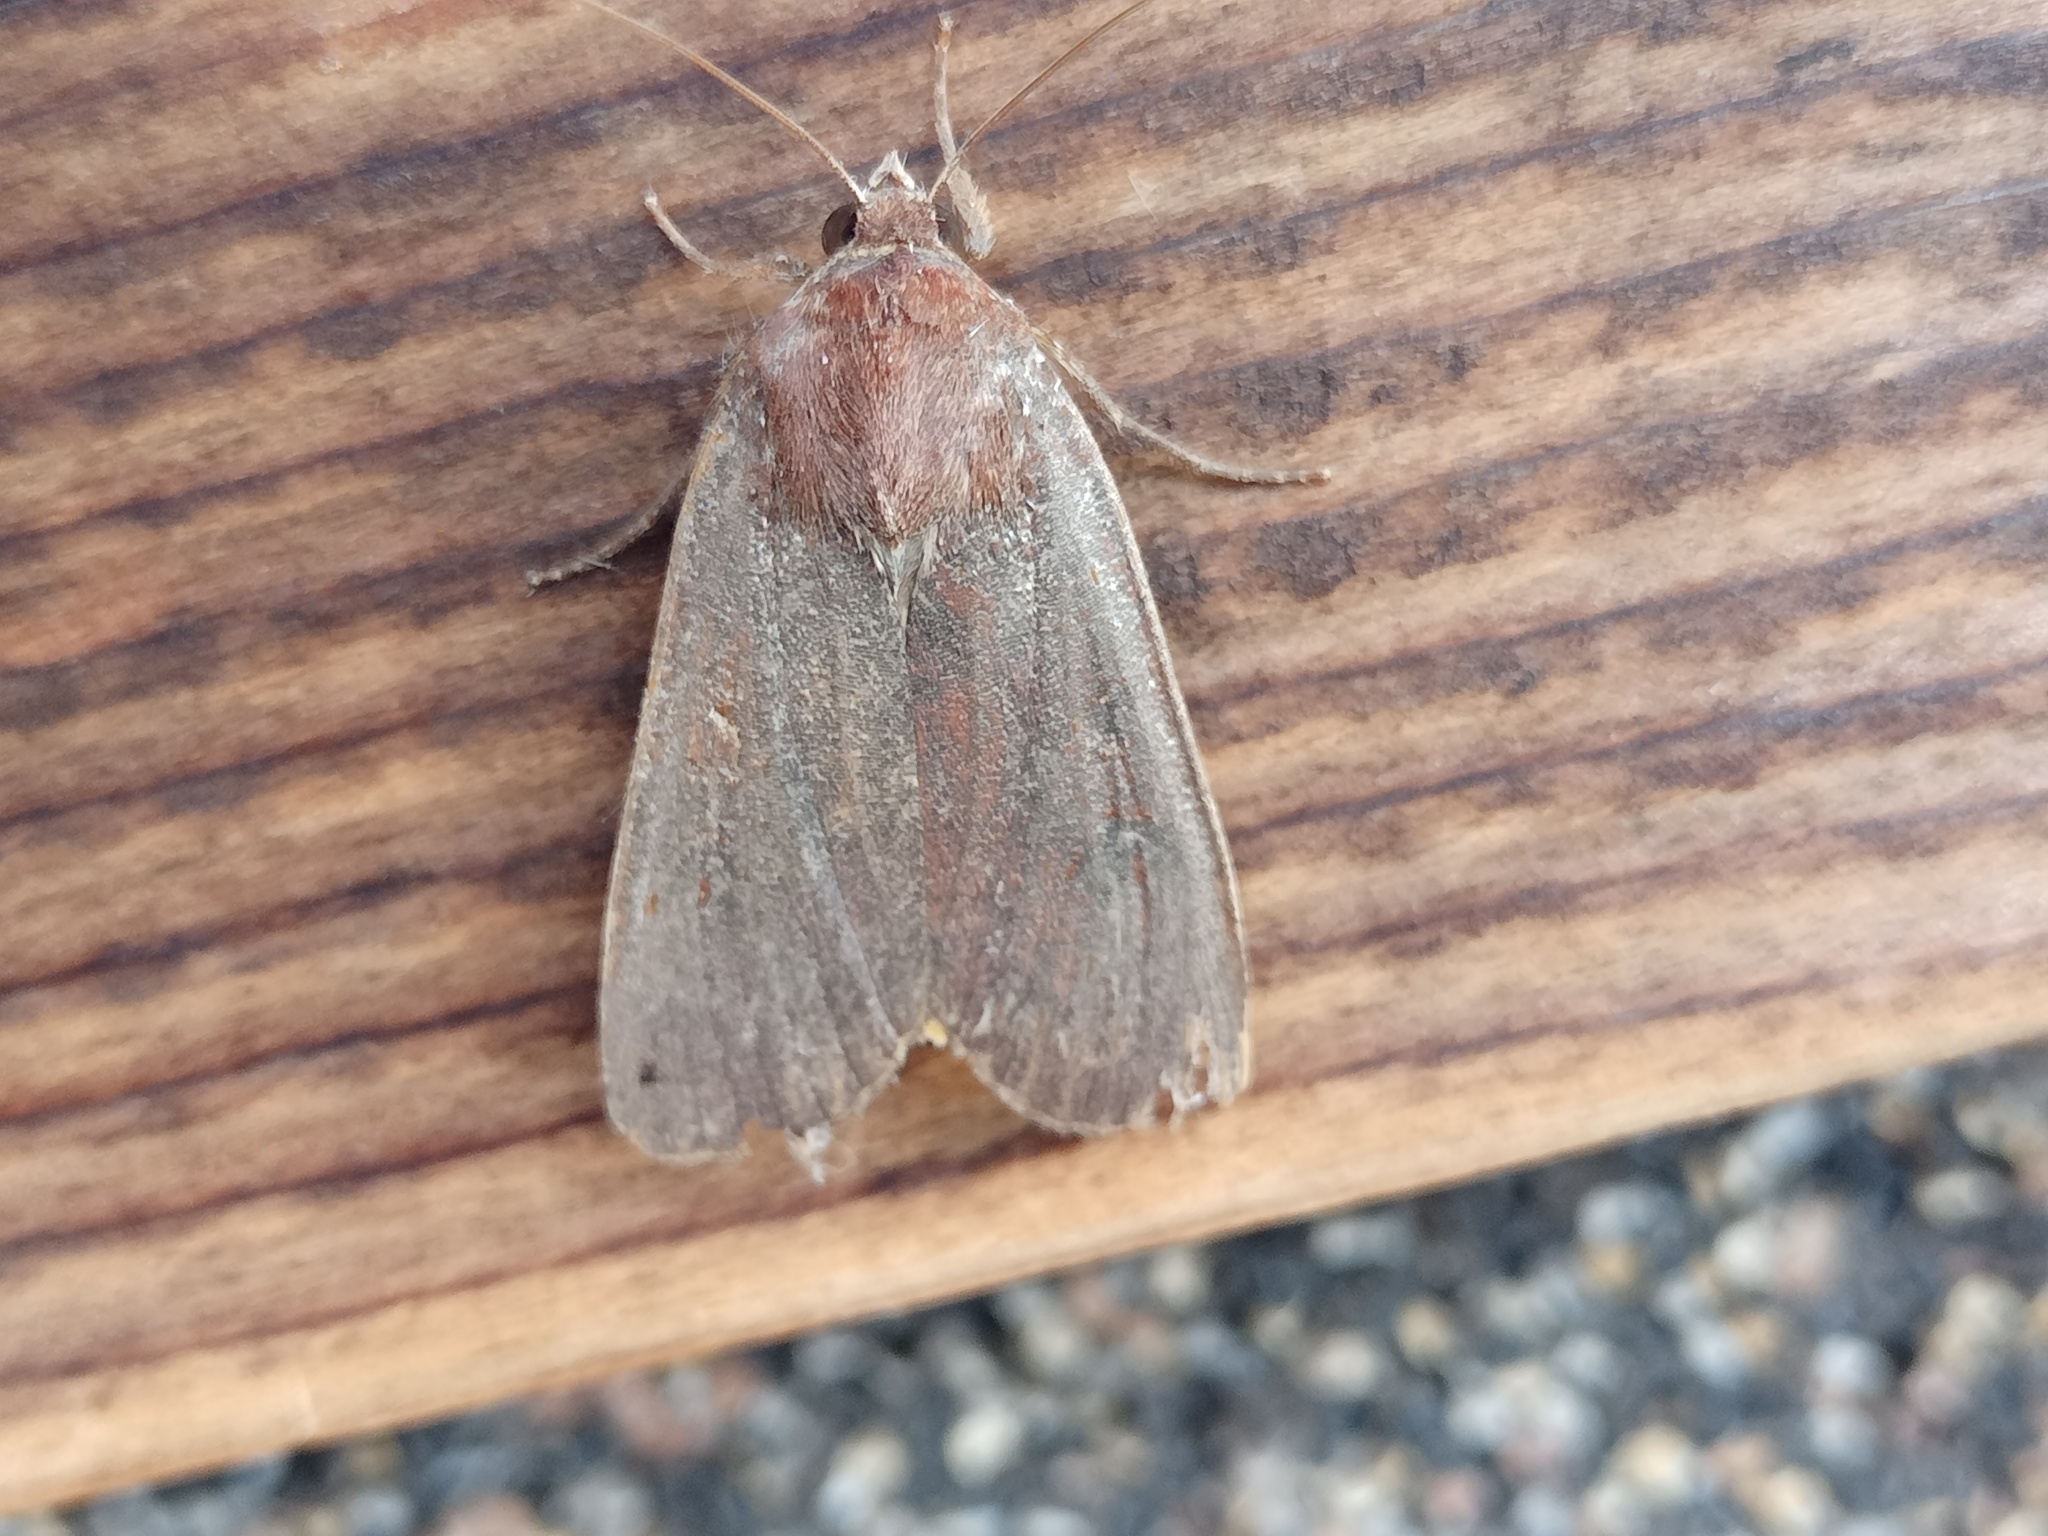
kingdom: Animalia
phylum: Arthropoda
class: Insecta
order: Lepidoptera
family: Noctuidae
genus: Noctua
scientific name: Noctua pronuba
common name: Large yellow underwing
